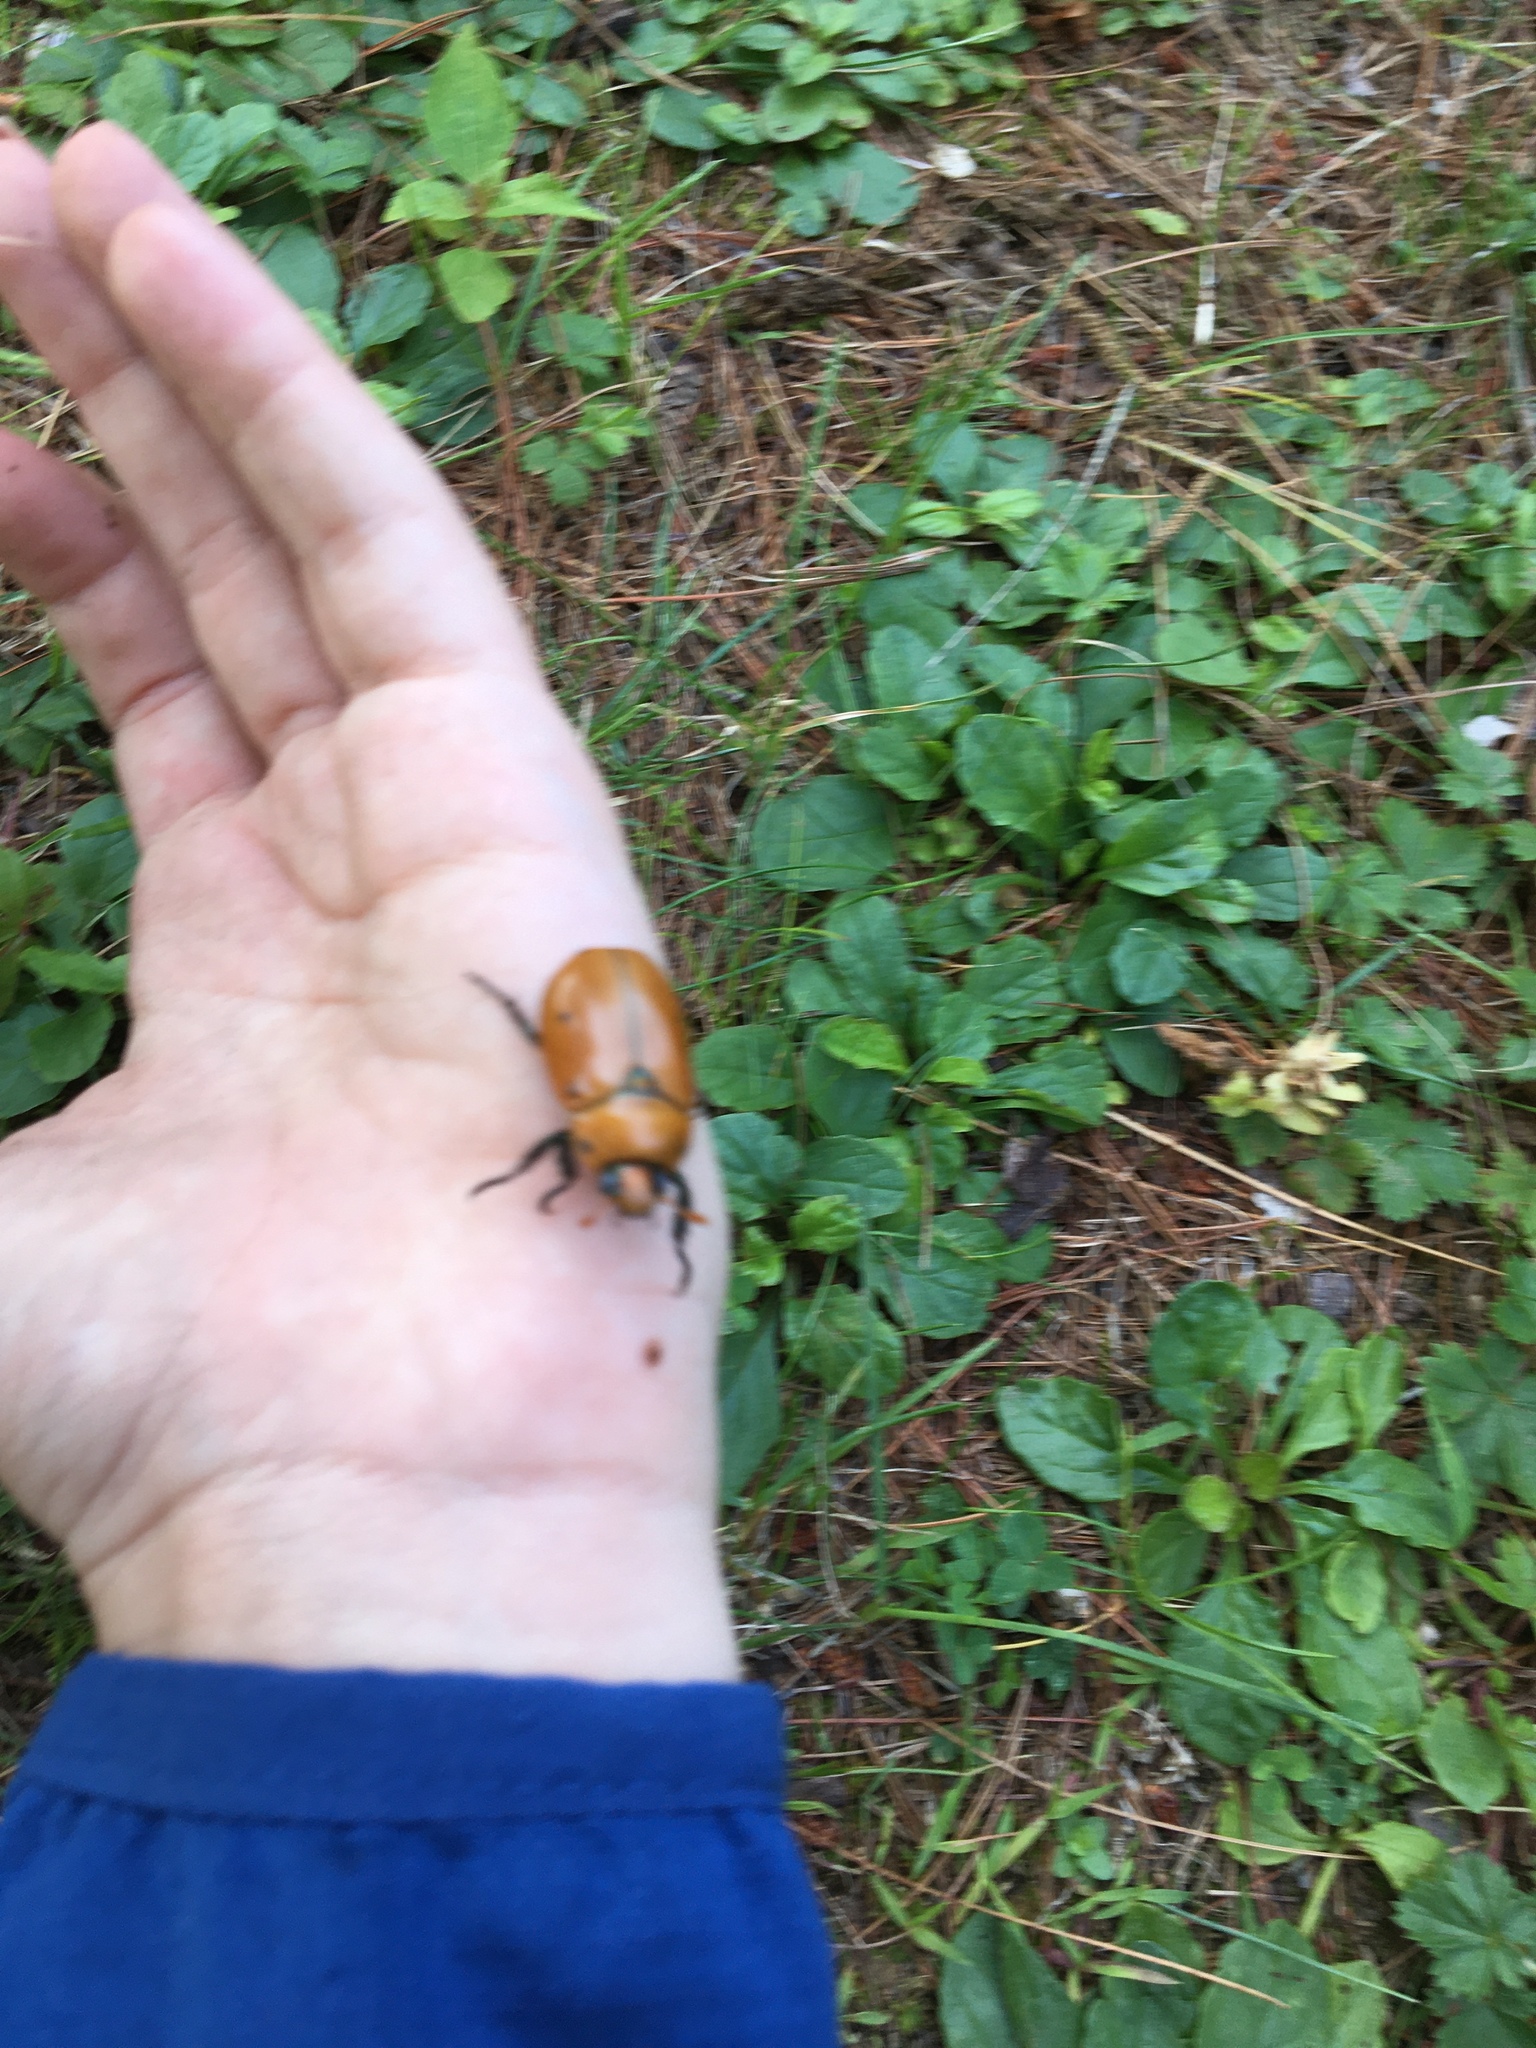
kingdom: Animalia
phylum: Arthropoda
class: Insecta
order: Coleoptera
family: Scarabaeidae
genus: Pelidnota
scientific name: Pelidnota punctata
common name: Grapevine beetle
